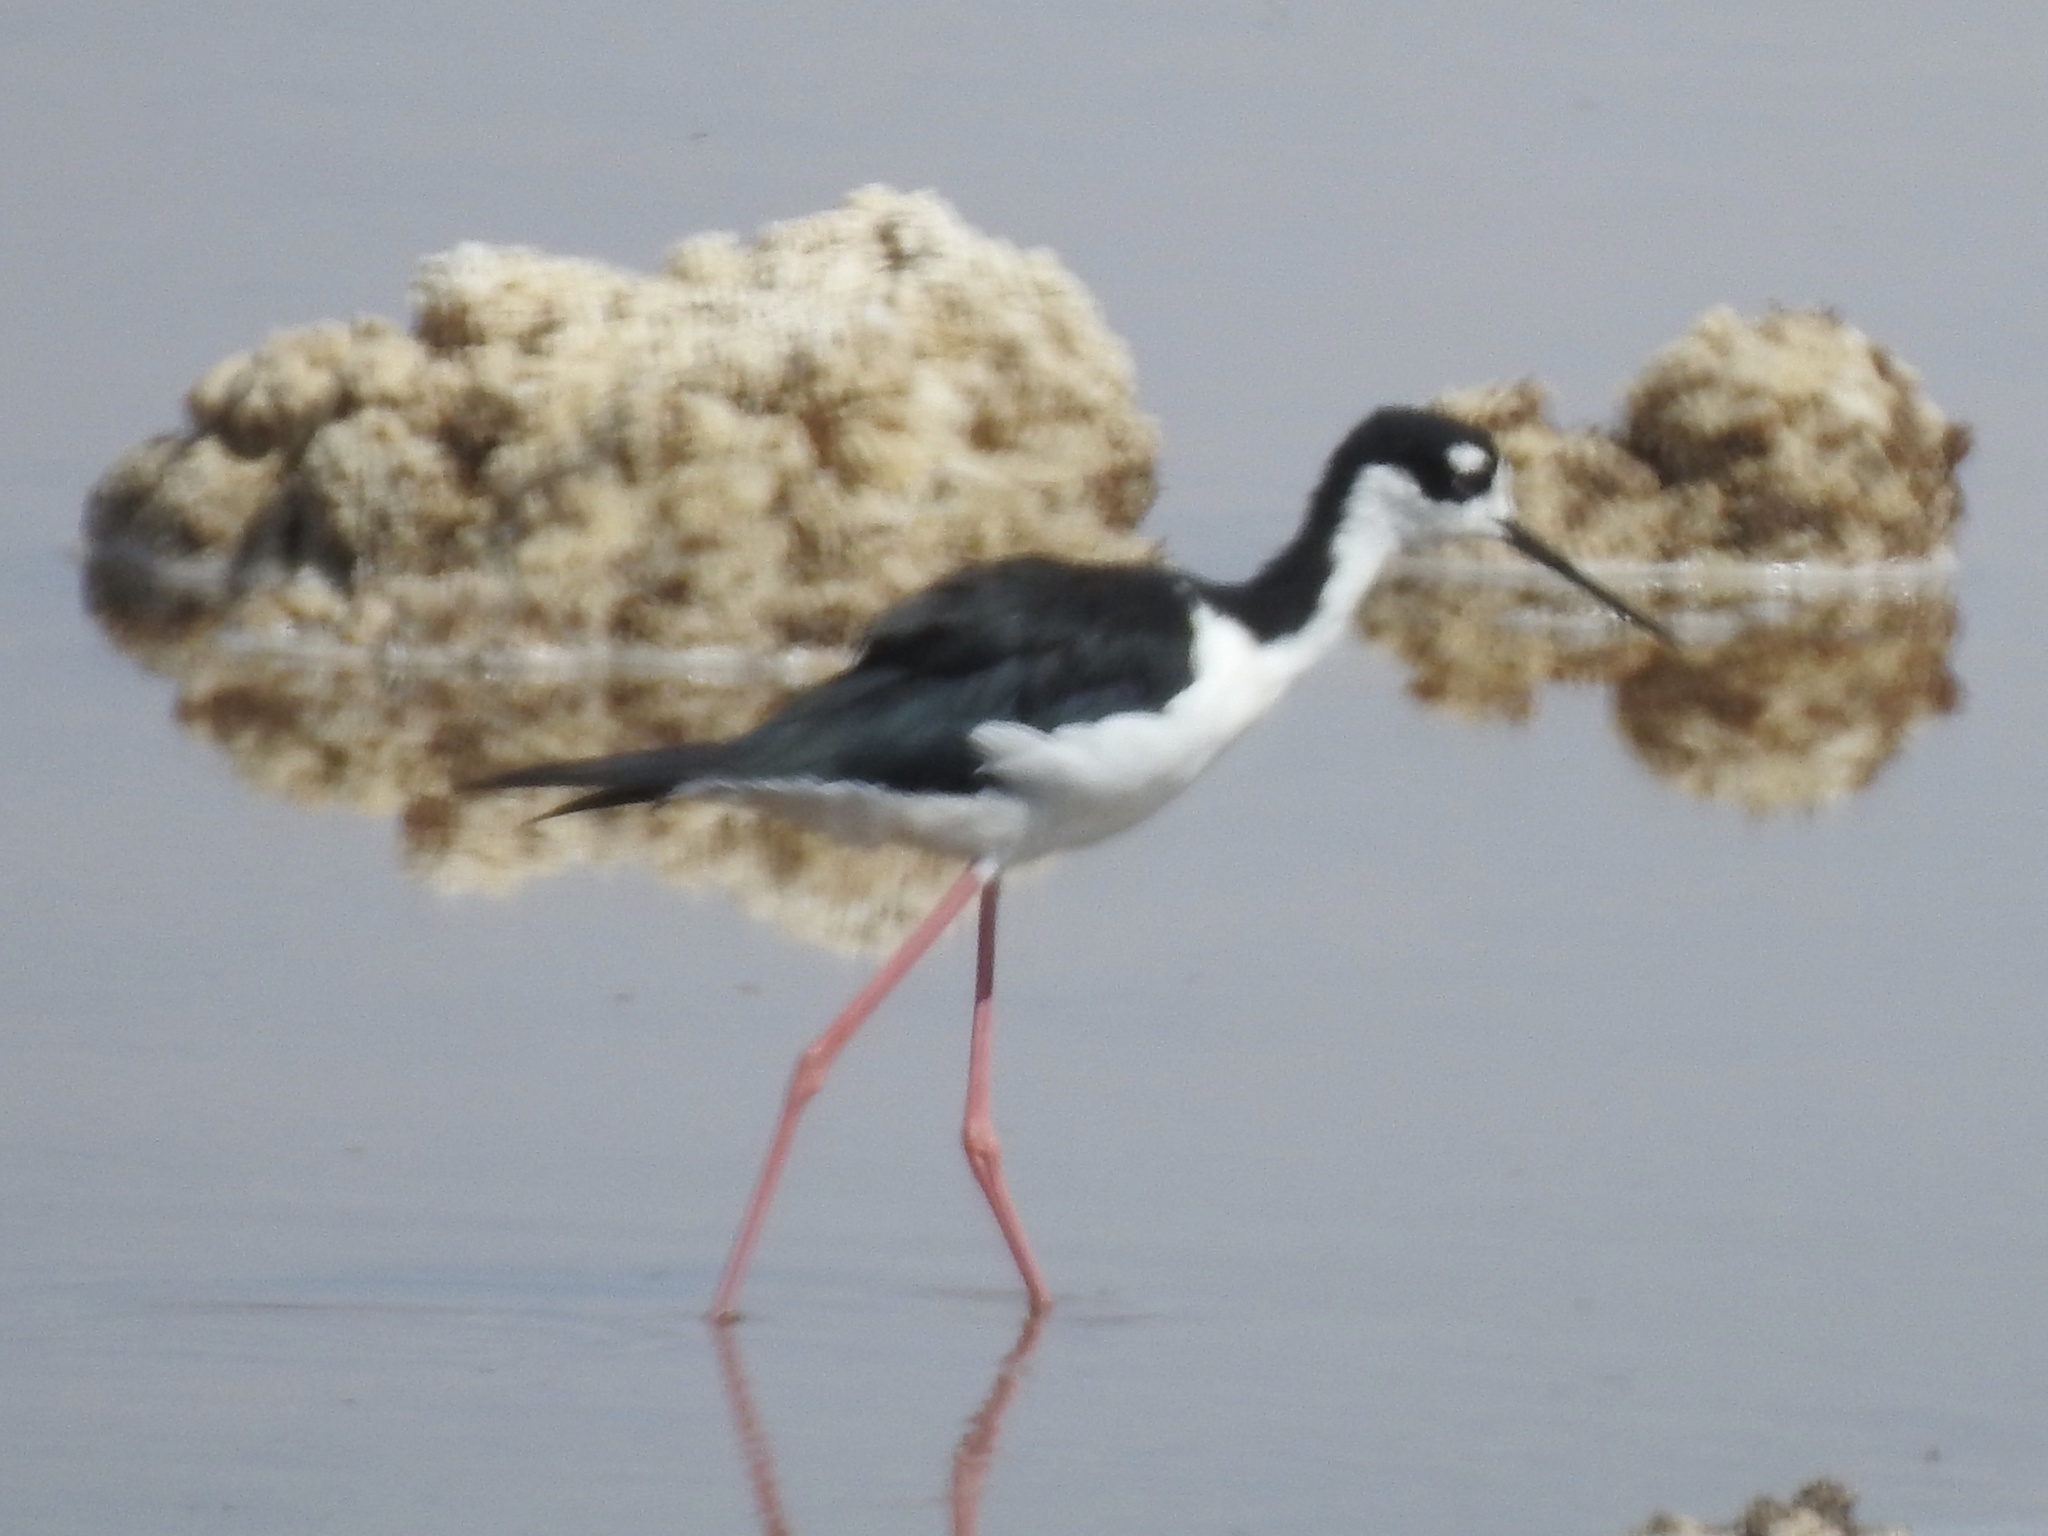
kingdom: Animalia
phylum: Chordata
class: Aves
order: Charadriiformes
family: Recurvirostridae
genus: Himantopus
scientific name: Himantopus mexicanus
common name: Black-necked stilt
